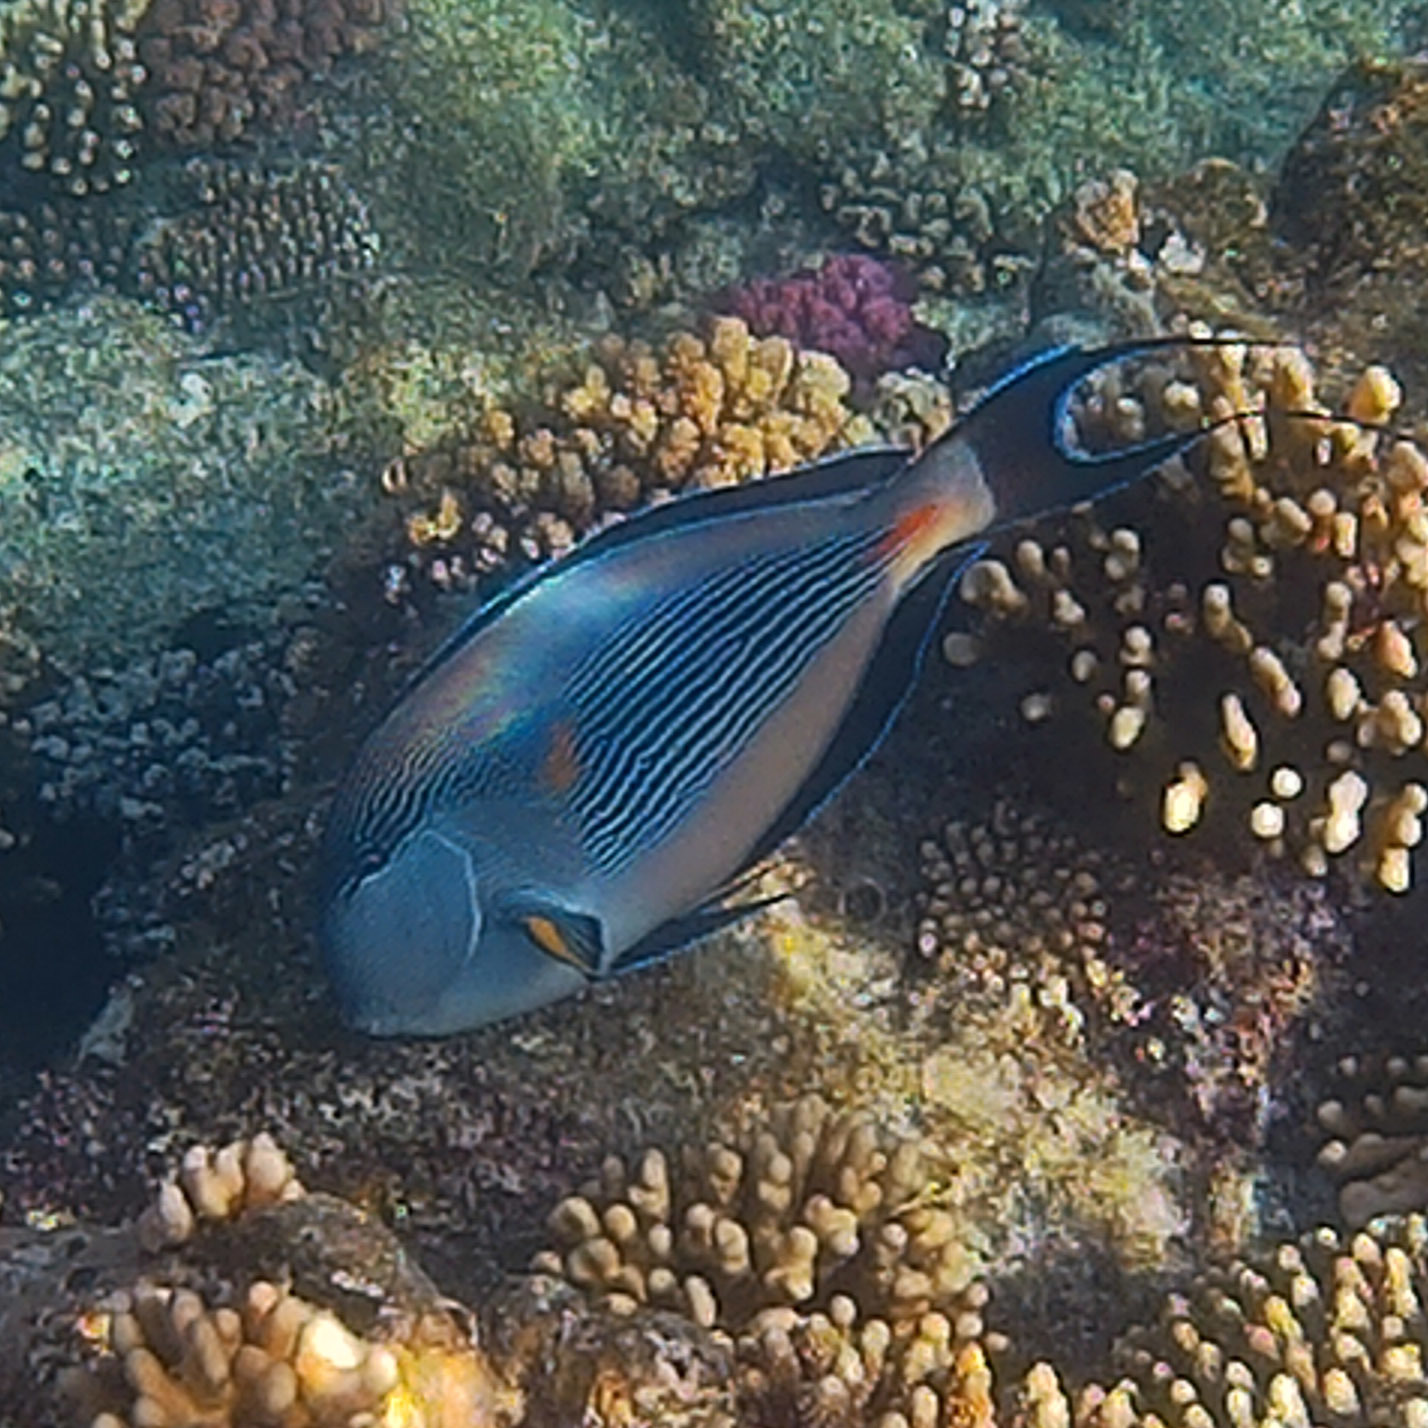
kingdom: Animalia
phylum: Chordata
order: Perciformes
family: Acanthuridae
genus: Acanthurus
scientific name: Acanthurus sohal
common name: Red sea surgeonfish
